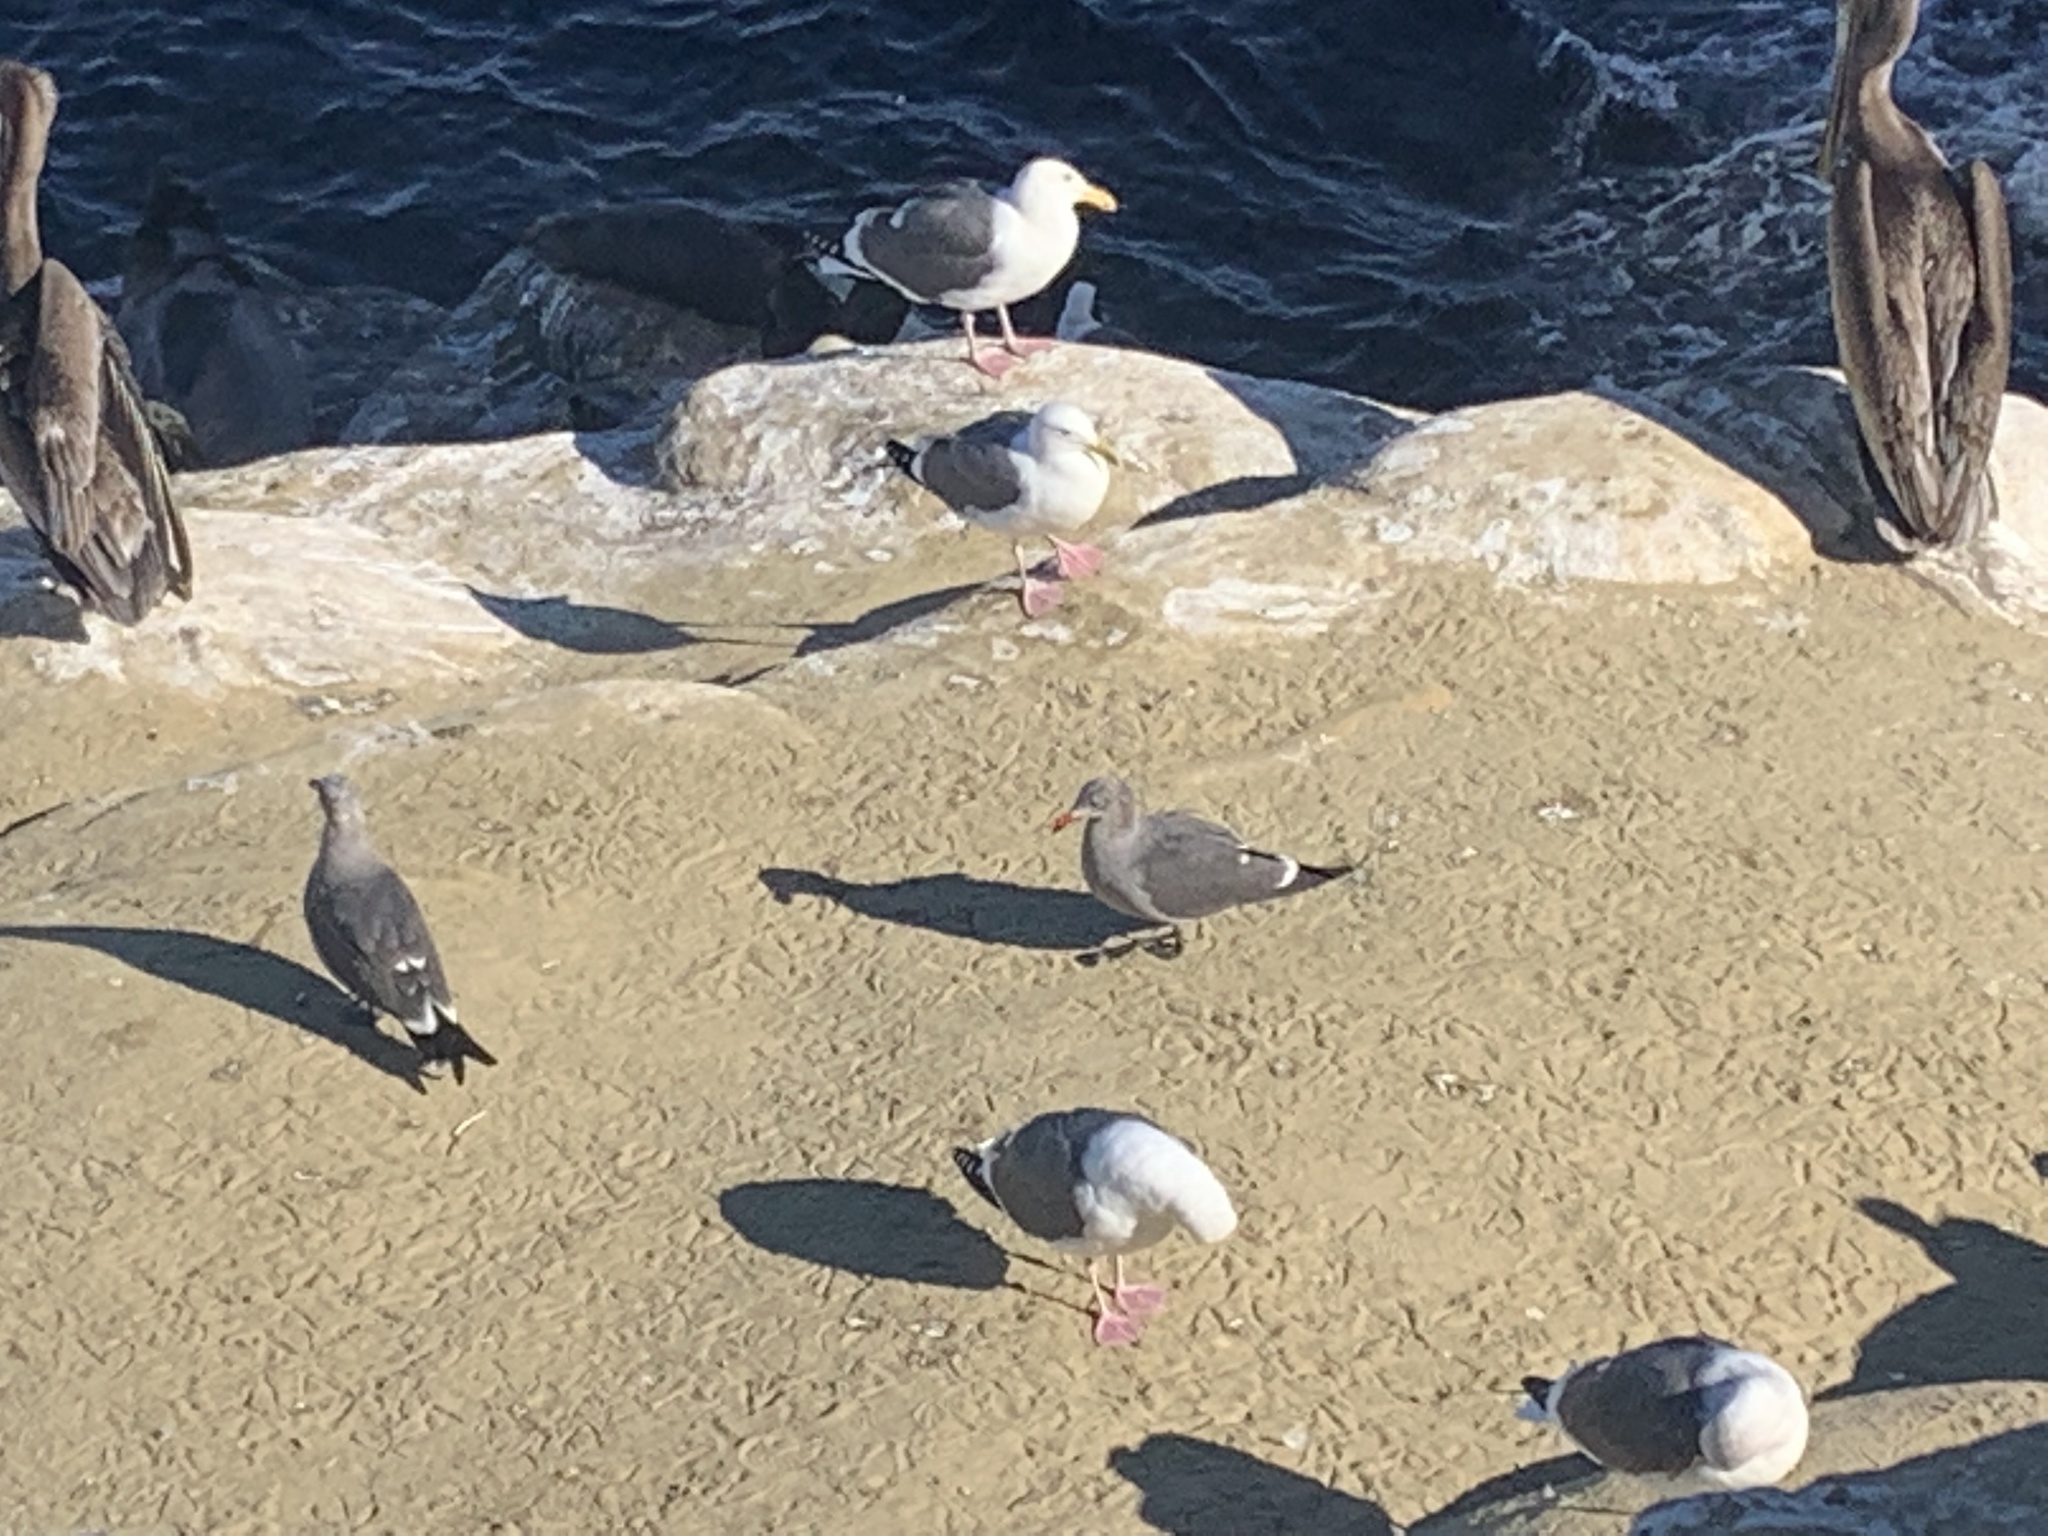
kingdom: Animalia
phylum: Chordata
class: Aves
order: Charadriiformes
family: Laridae
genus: Larus
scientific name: Larus occidentalis
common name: Western gull
